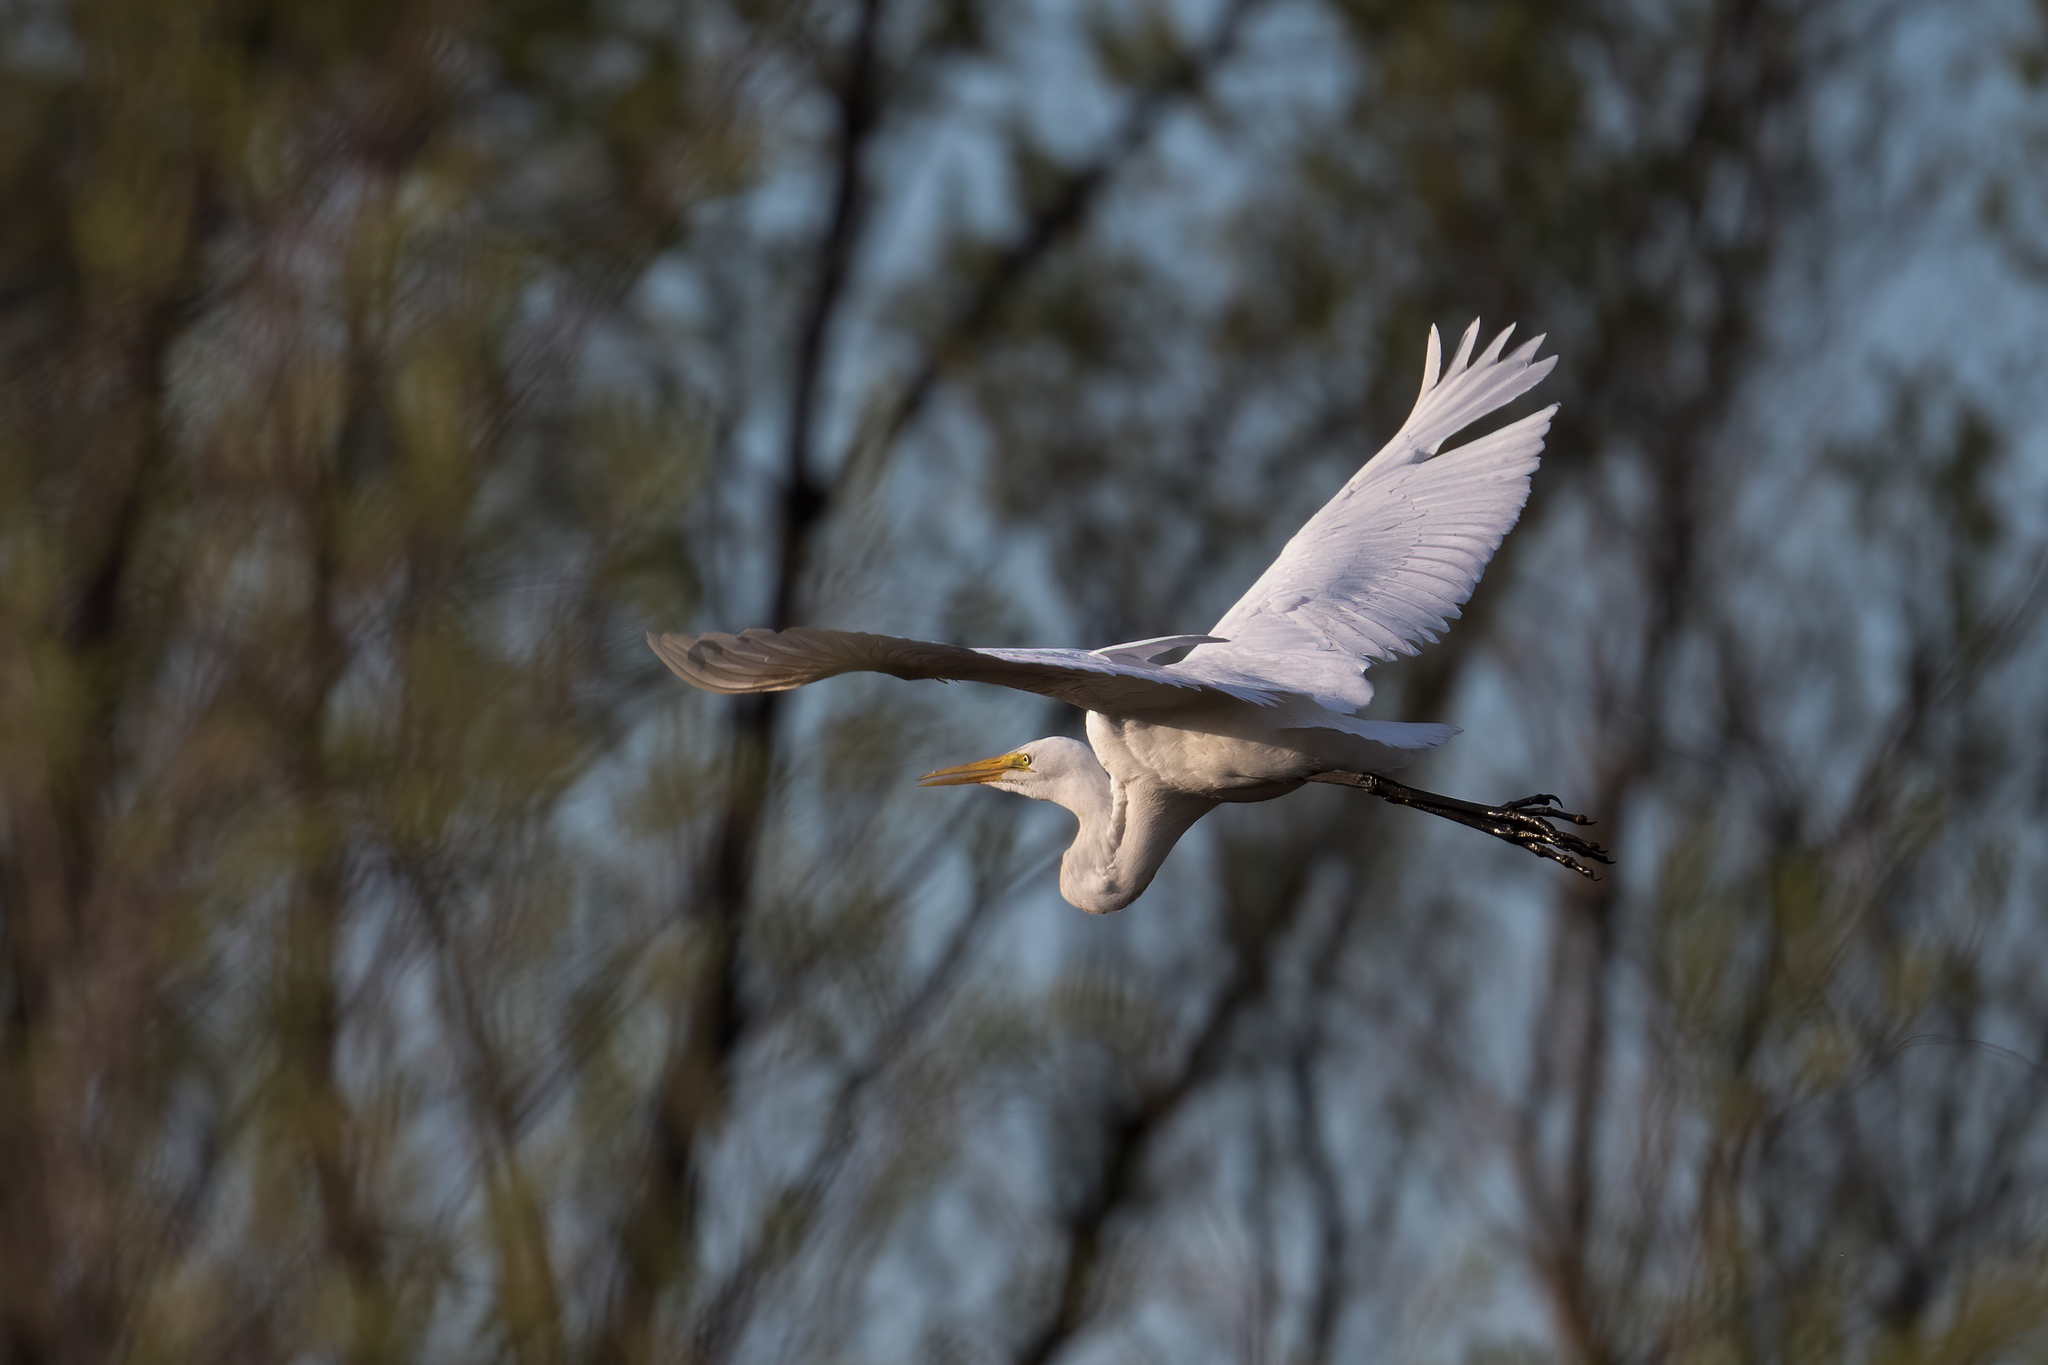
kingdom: Animalia
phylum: Chordata
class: Aves
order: Pelecaniformes
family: Ardeidae
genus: Ardea
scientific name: Ardea alba
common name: Great egret
